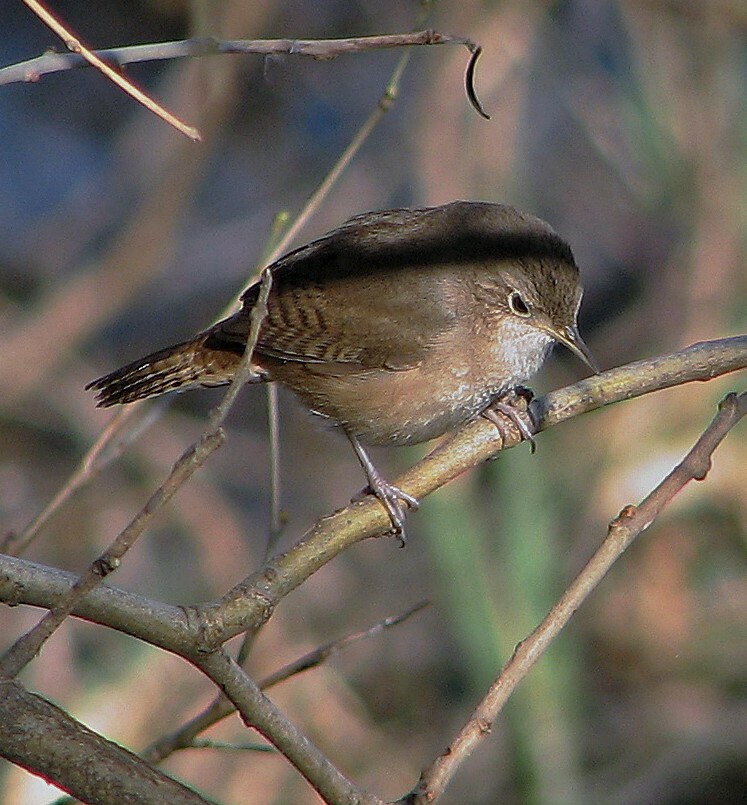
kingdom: Animalia
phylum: Chordata
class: Aves
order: Passeriformes
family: Troglodytidae
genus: Troglodytes
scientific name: Troglodytes aedon
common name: House wren
